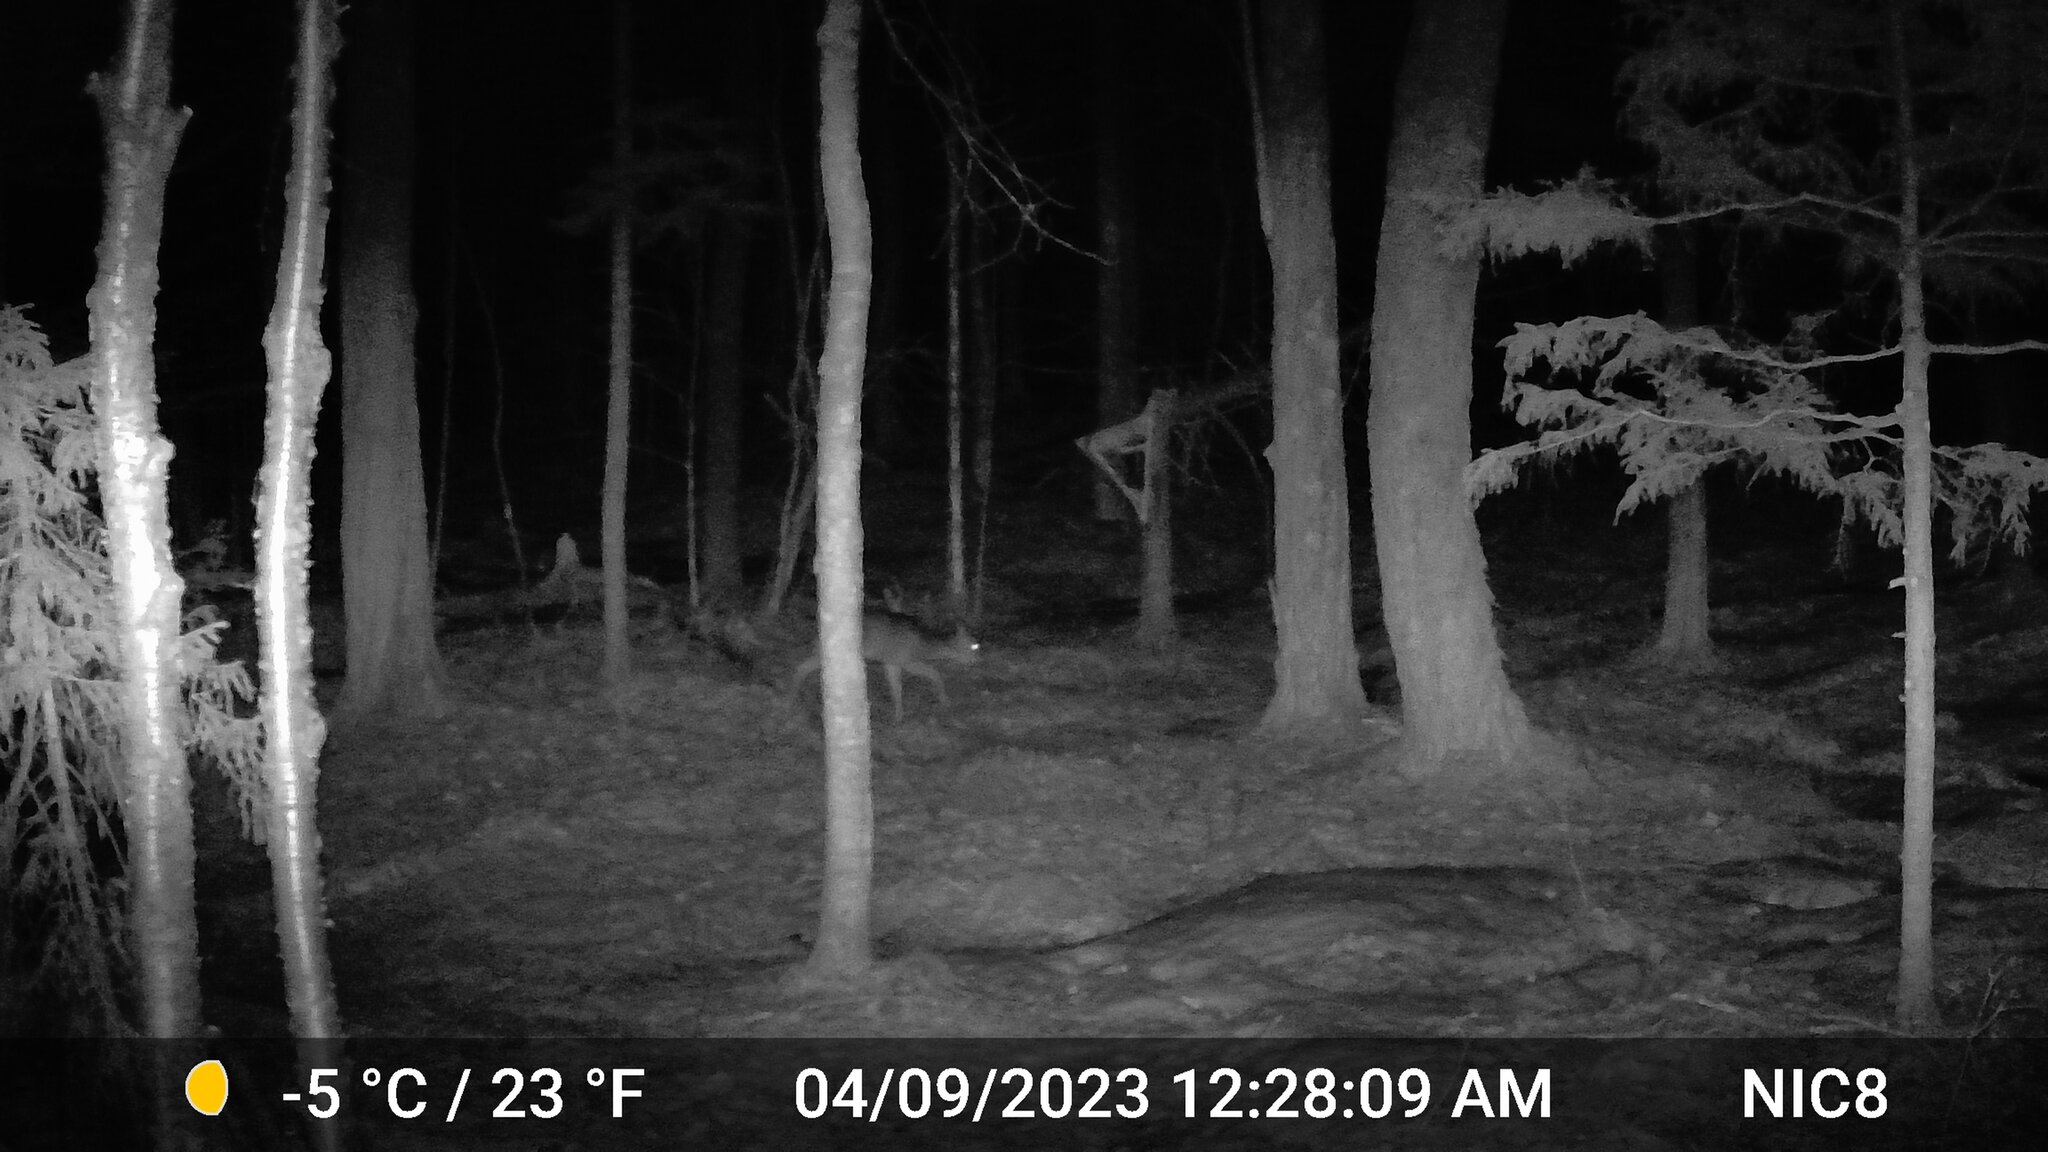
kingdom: Animalia
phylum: Chordata
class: Mammalia
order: Artiodactyla
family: Cervidae
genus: Odocoileus
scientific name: Odocoileus virginianus
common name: White-tailed deer
